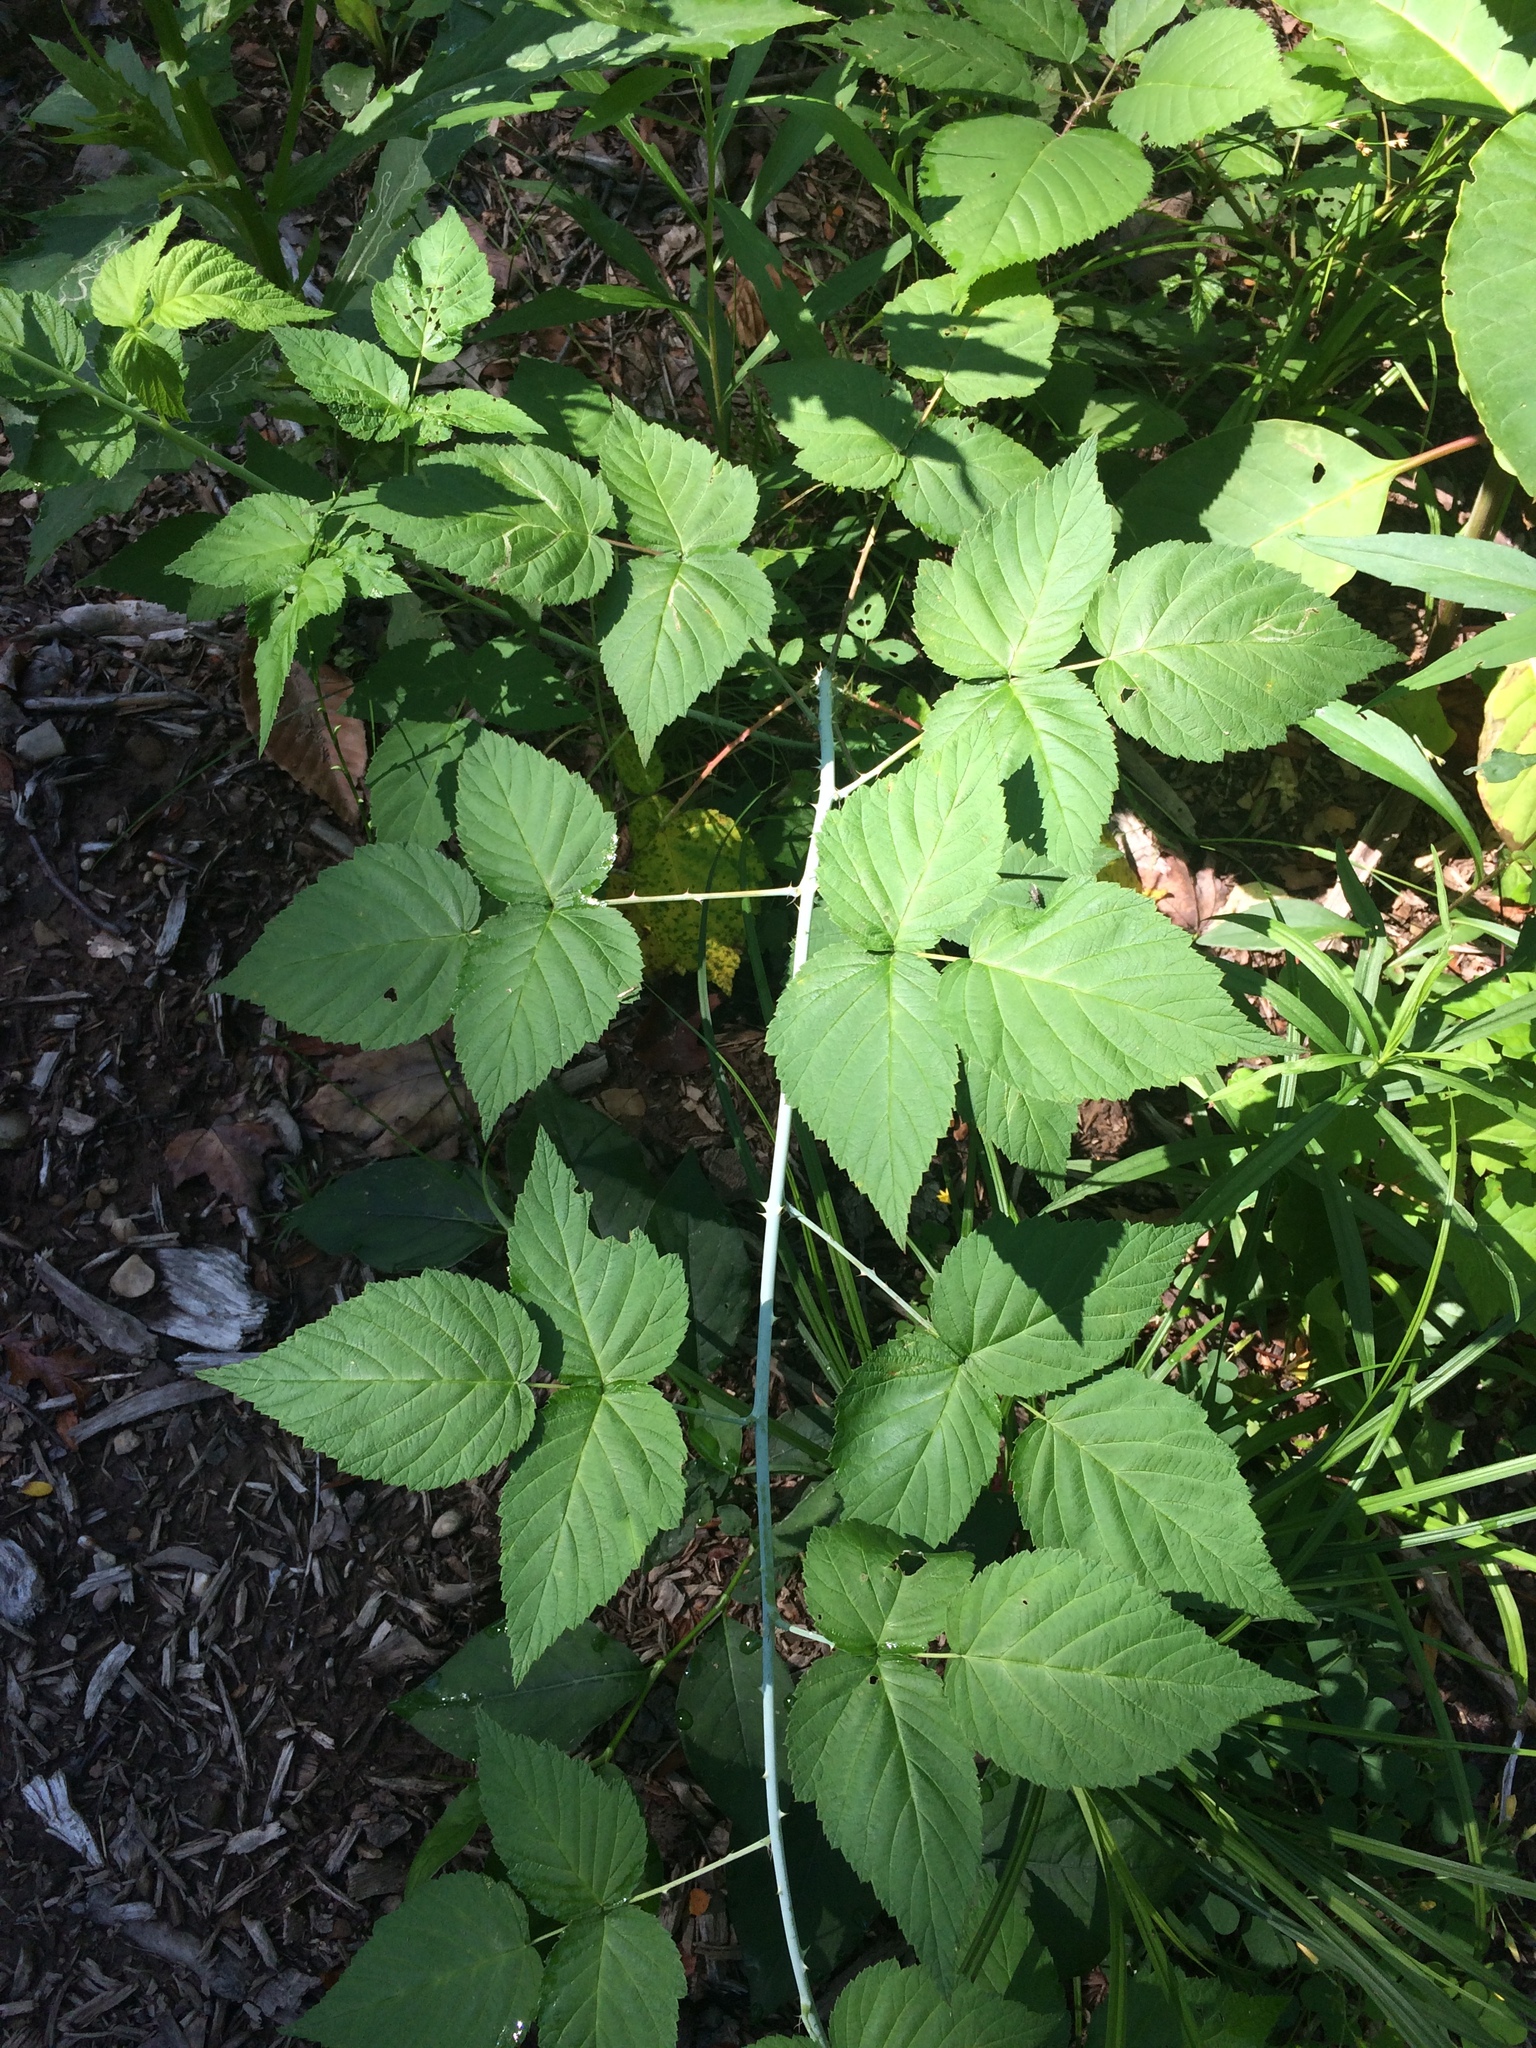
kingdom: Plantae
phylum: Tracheophyta
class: Magnoliopsida
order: Rosales
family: Rosaceae
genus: Rubus
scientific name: Rubus occidentalis
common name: Black raspberry
